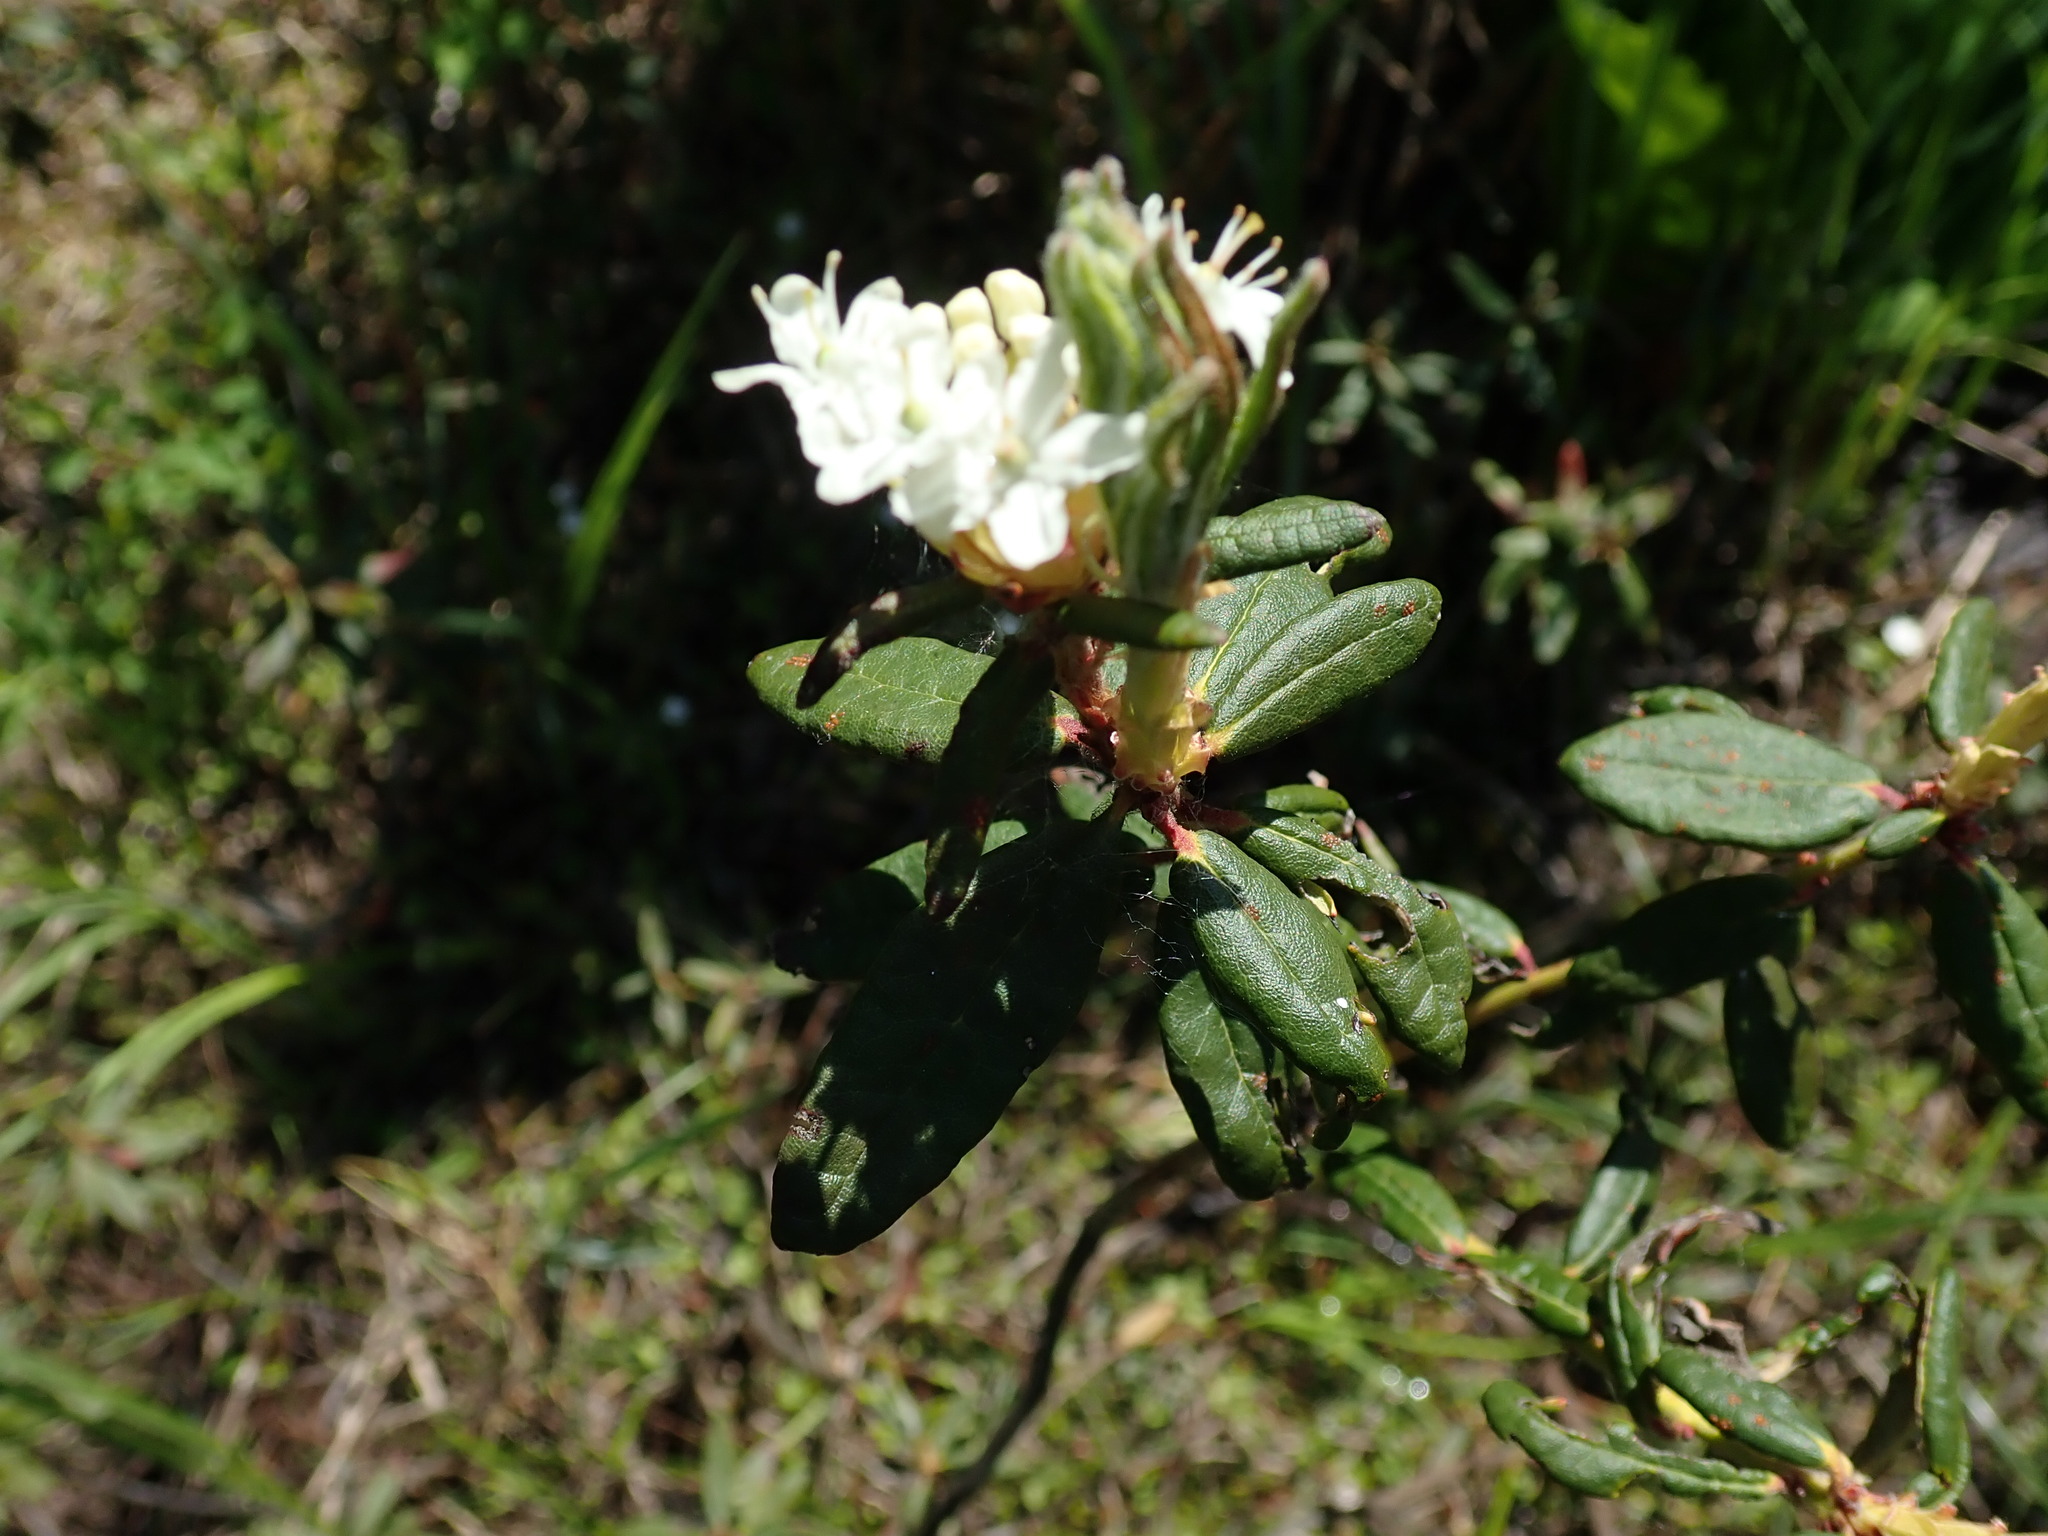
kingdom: Plantae
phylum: Tracheophyta
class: Magnoliopsida
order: Ericales
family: Ericaceae
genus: Rhododendron
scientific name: Rhododendron groenlandicum
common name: Bog labrador tea
